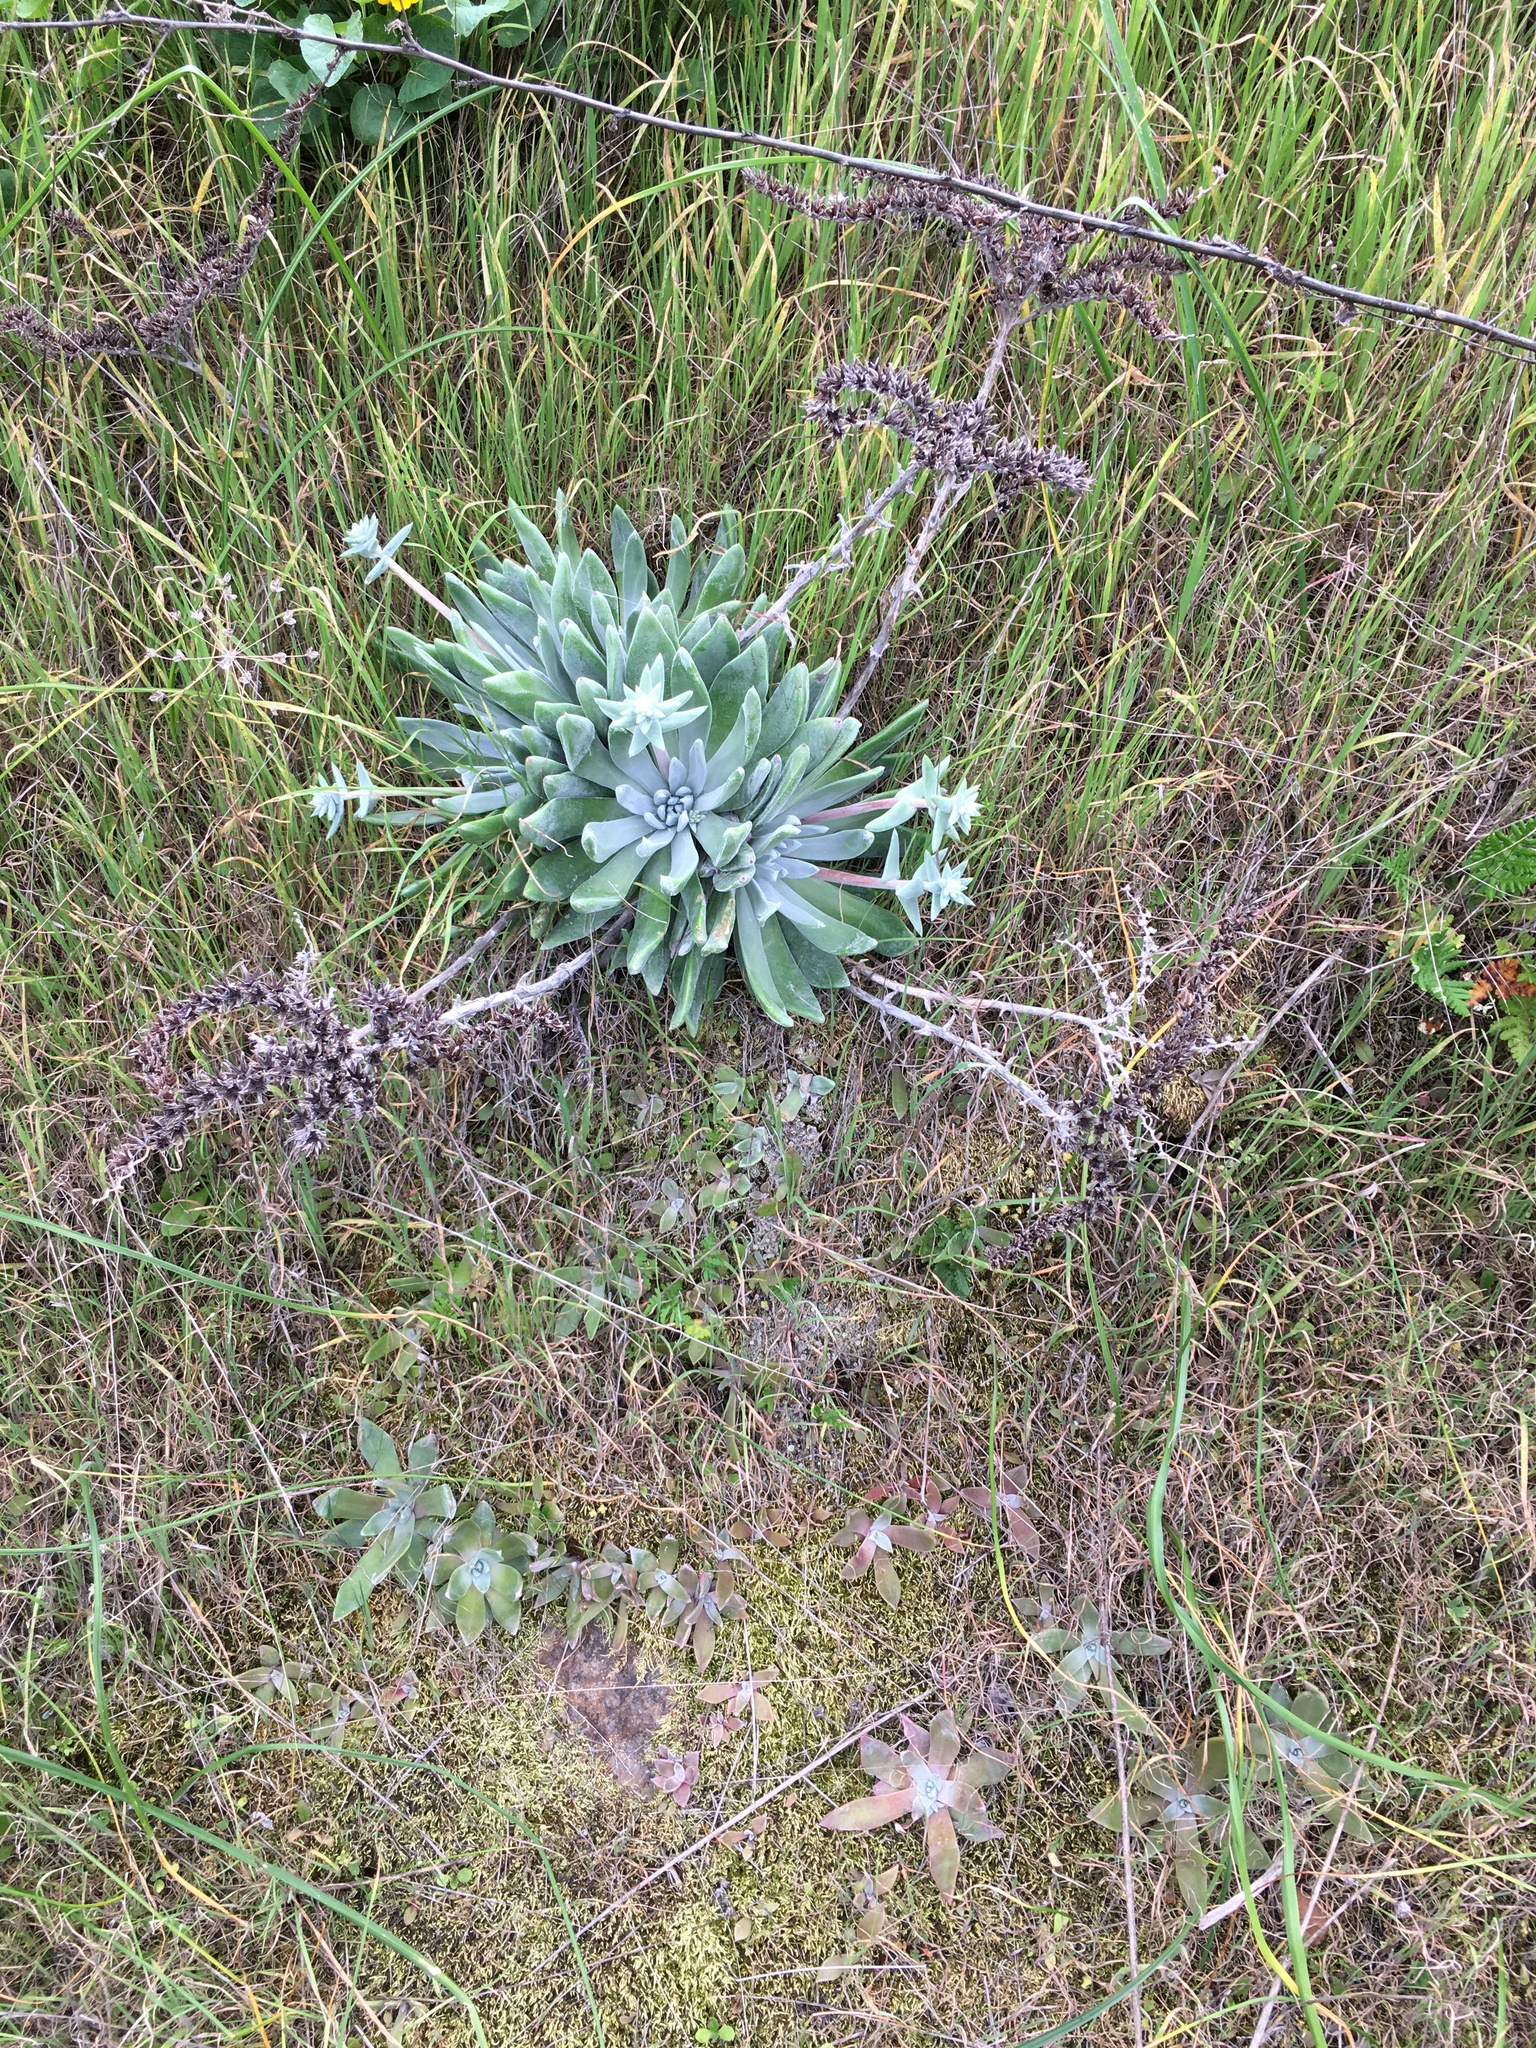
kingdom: Plantae
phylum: Tracheophyta
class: Magnoliopsida
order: Saxifragales
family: Crassulaceae
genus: Dudleya
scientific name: Dudleya greenei
